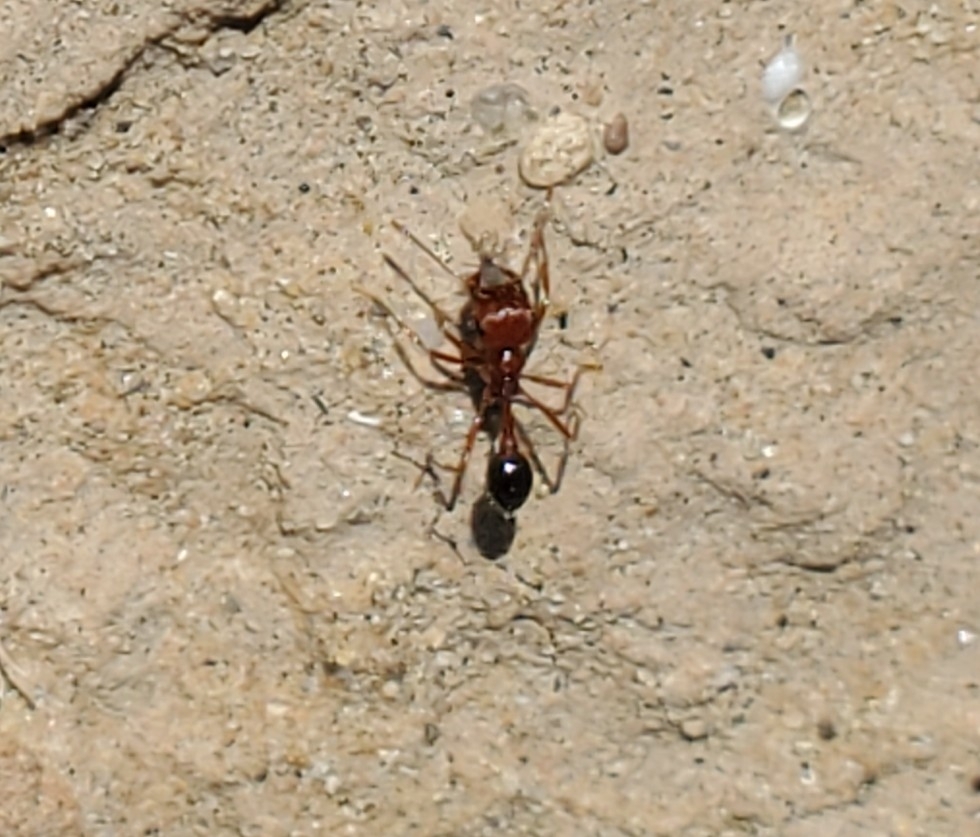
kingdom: Animalia
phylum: Arthropoda
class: Insecta
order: Hymenoptera
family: Formicidae
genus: Pogonomyrmex
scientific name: Pogonomyrmex californicus
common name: California harvester ant
